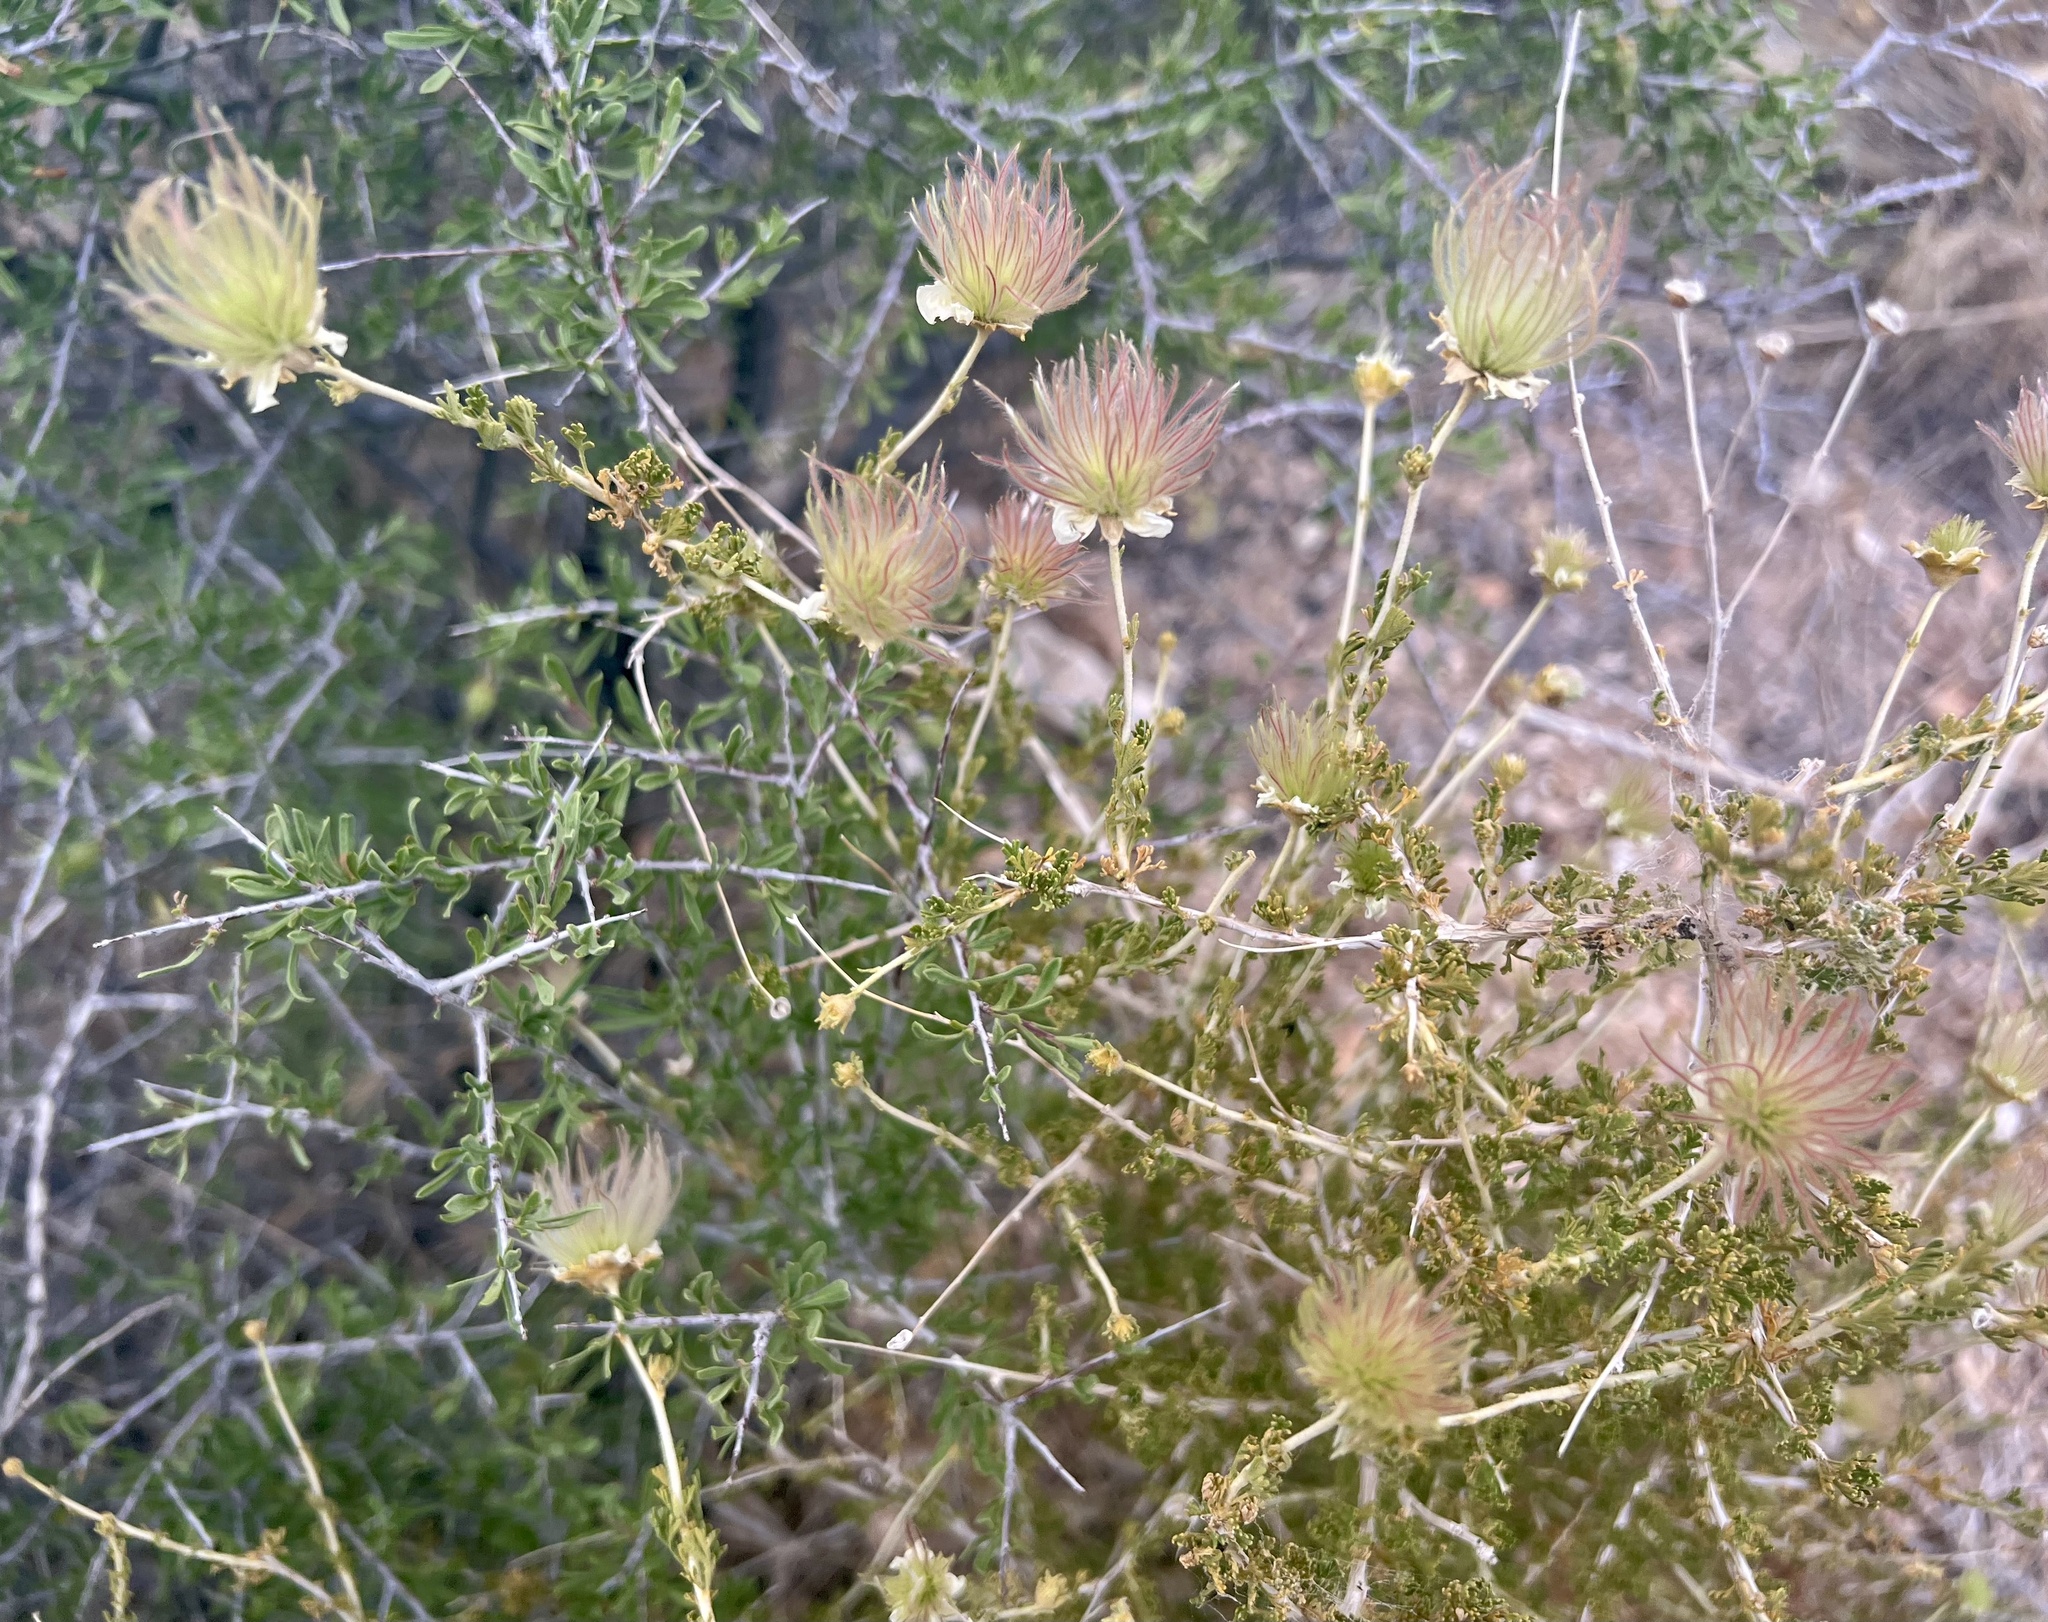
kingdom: Plantae
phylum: Tracheophyta
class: Magnoliopsida
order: Rosales
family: Rosaceae
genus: Fallugia
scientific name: Fallugia paradoxa
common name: Apache-plume
